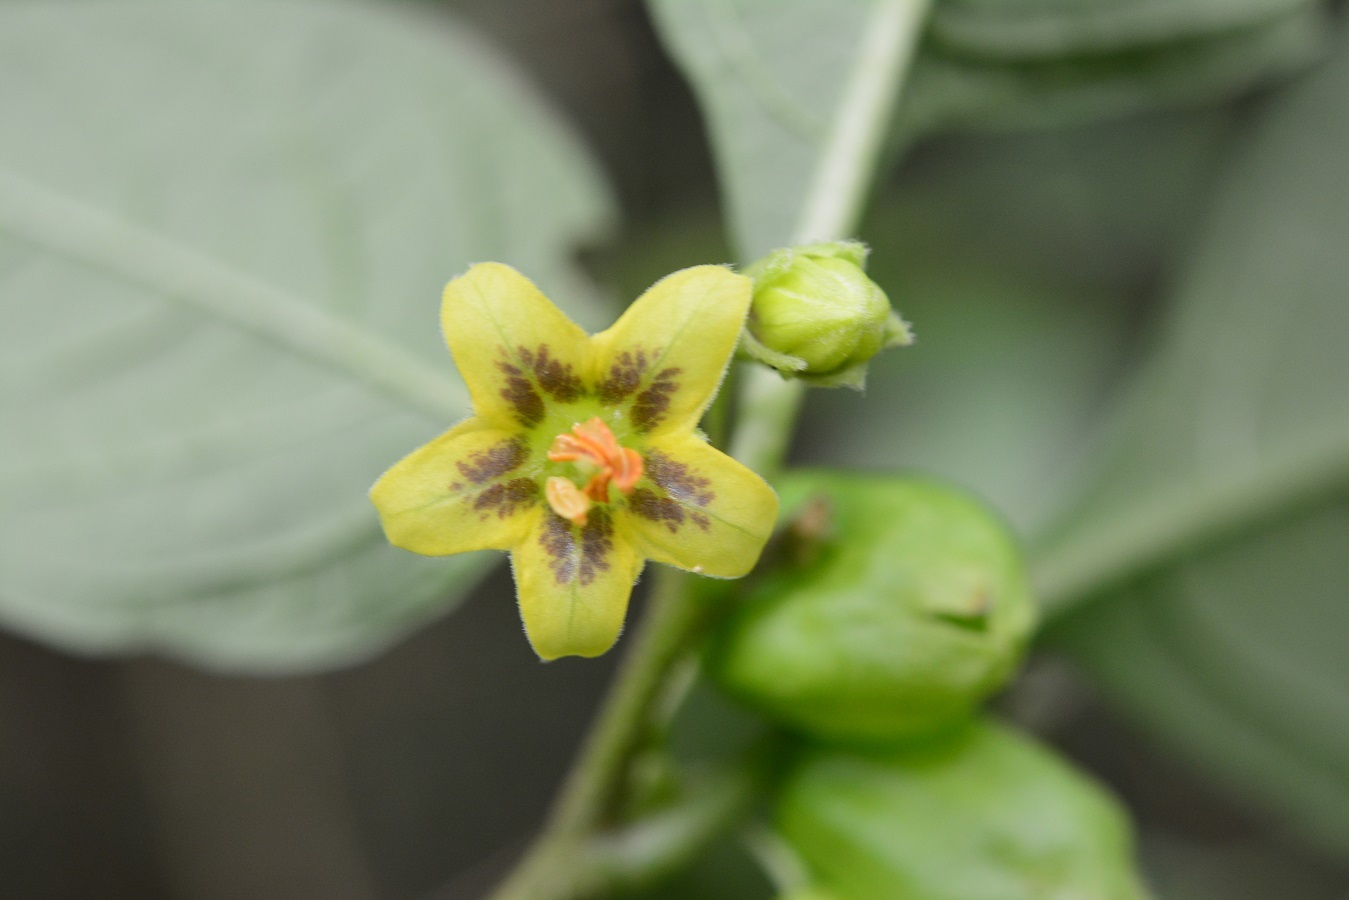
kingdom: Plantae
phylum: Tracheophyta
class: Magnoliopsida
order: Solanales
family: Solanaceae
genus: Physalis
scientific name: Physalis campechiana
